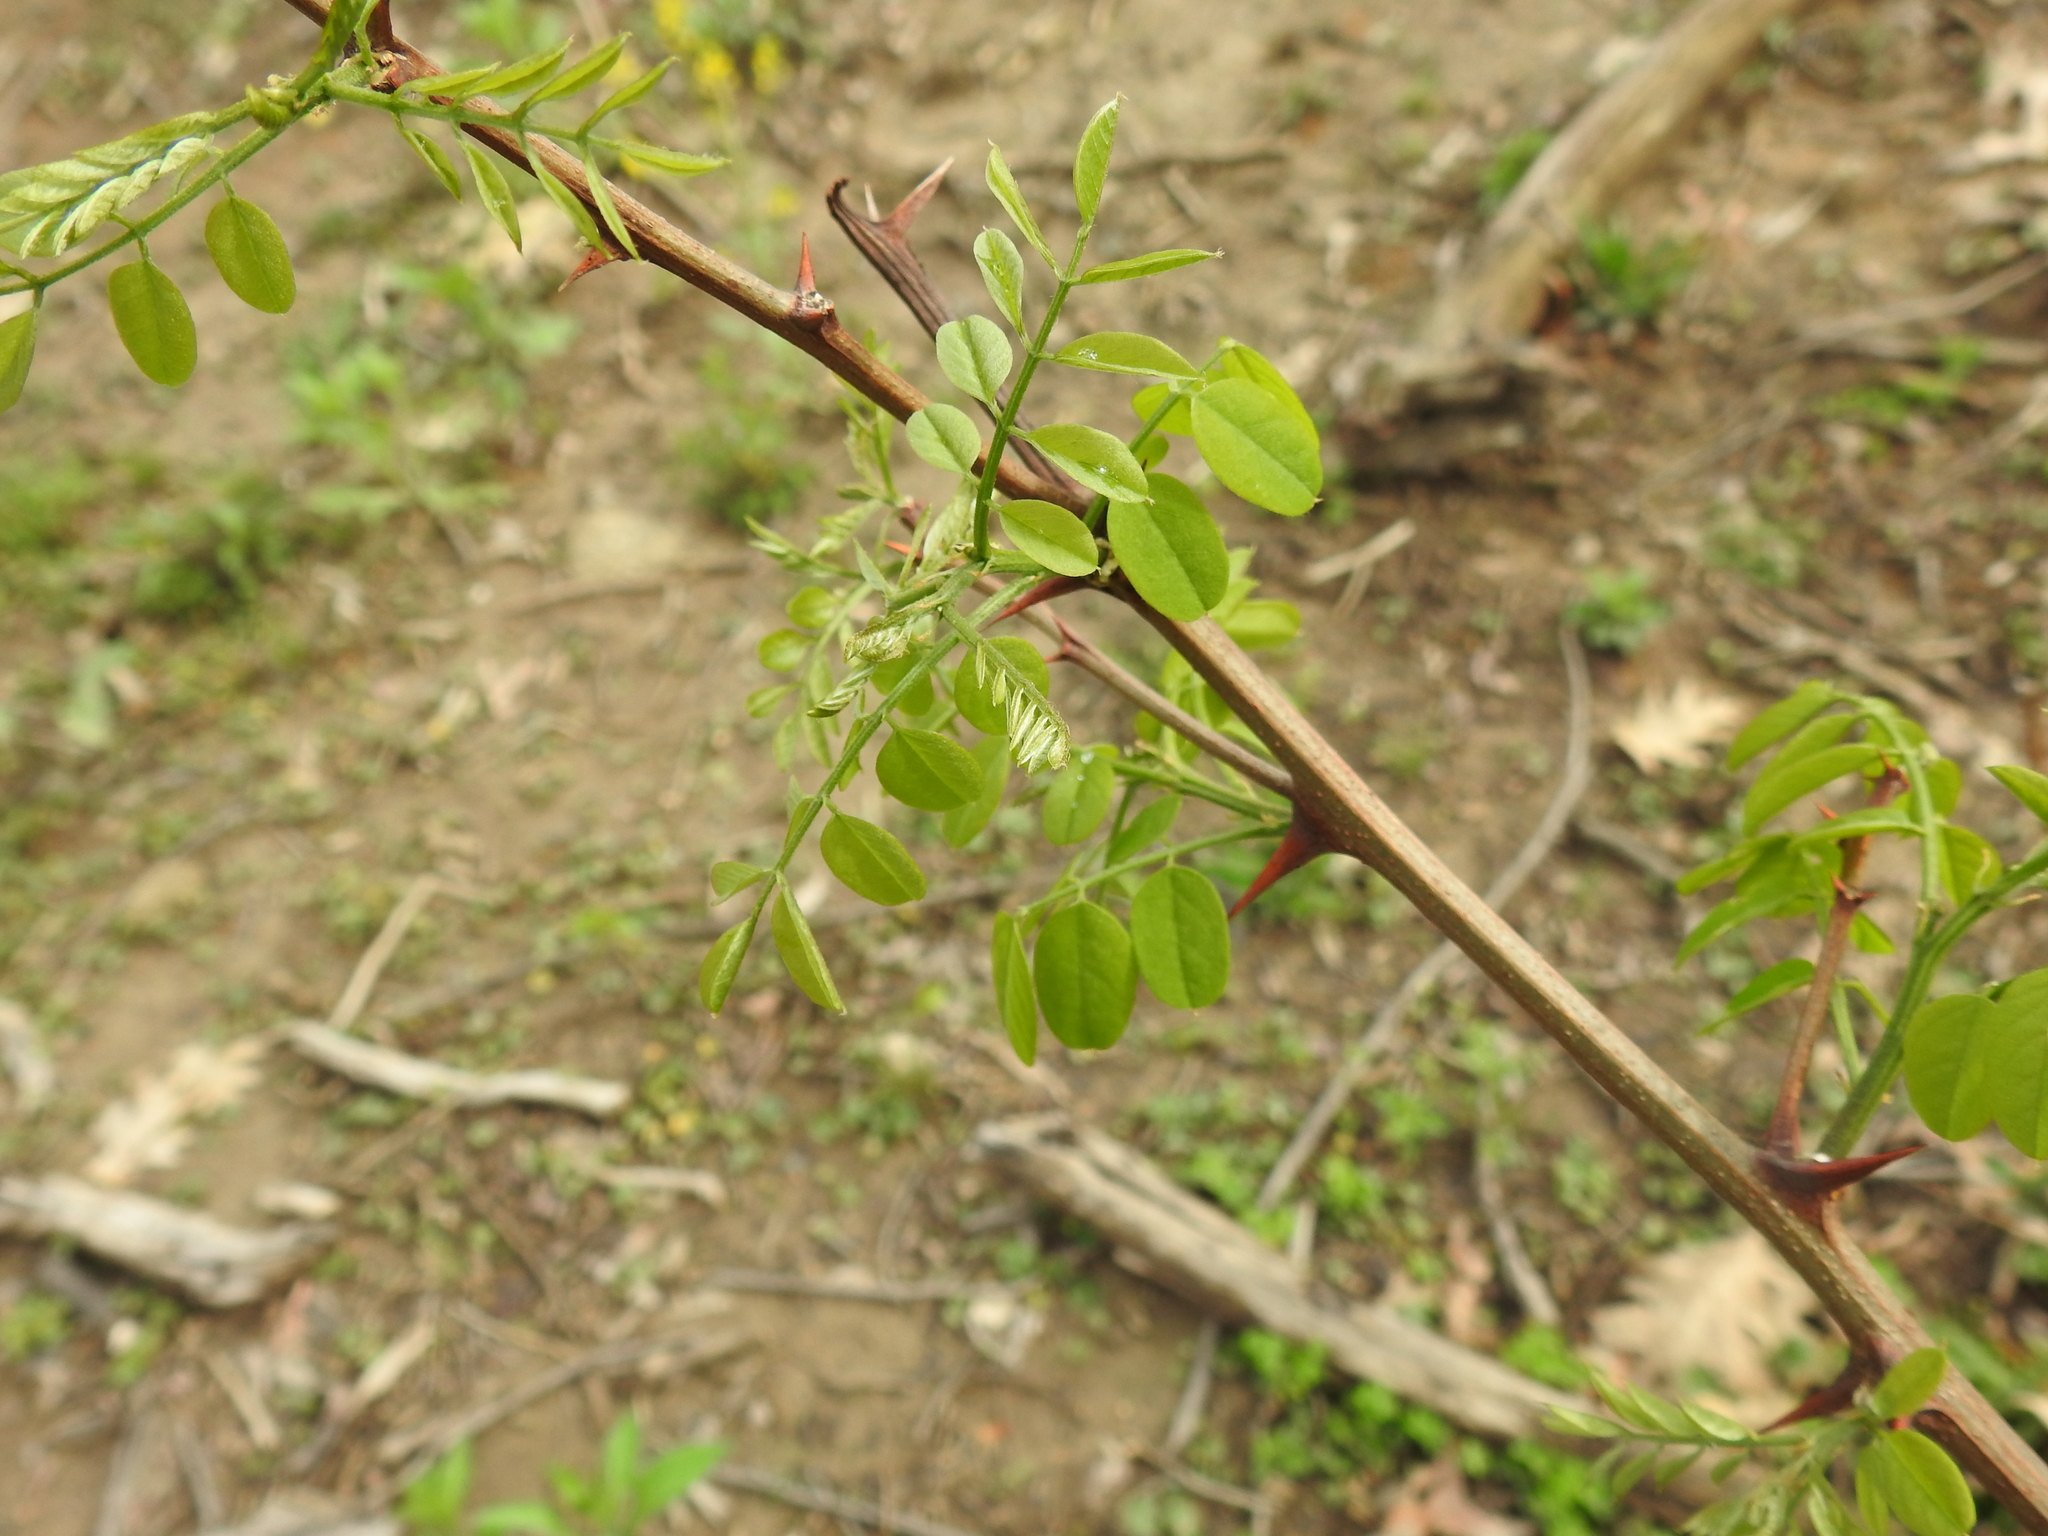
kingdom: Plantae
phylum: Tracheophyta
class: Magnoliopsida
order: Fabales
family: Fabaceae
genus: Robinia
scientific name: Robinia pseudoacacia
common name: Black locust
